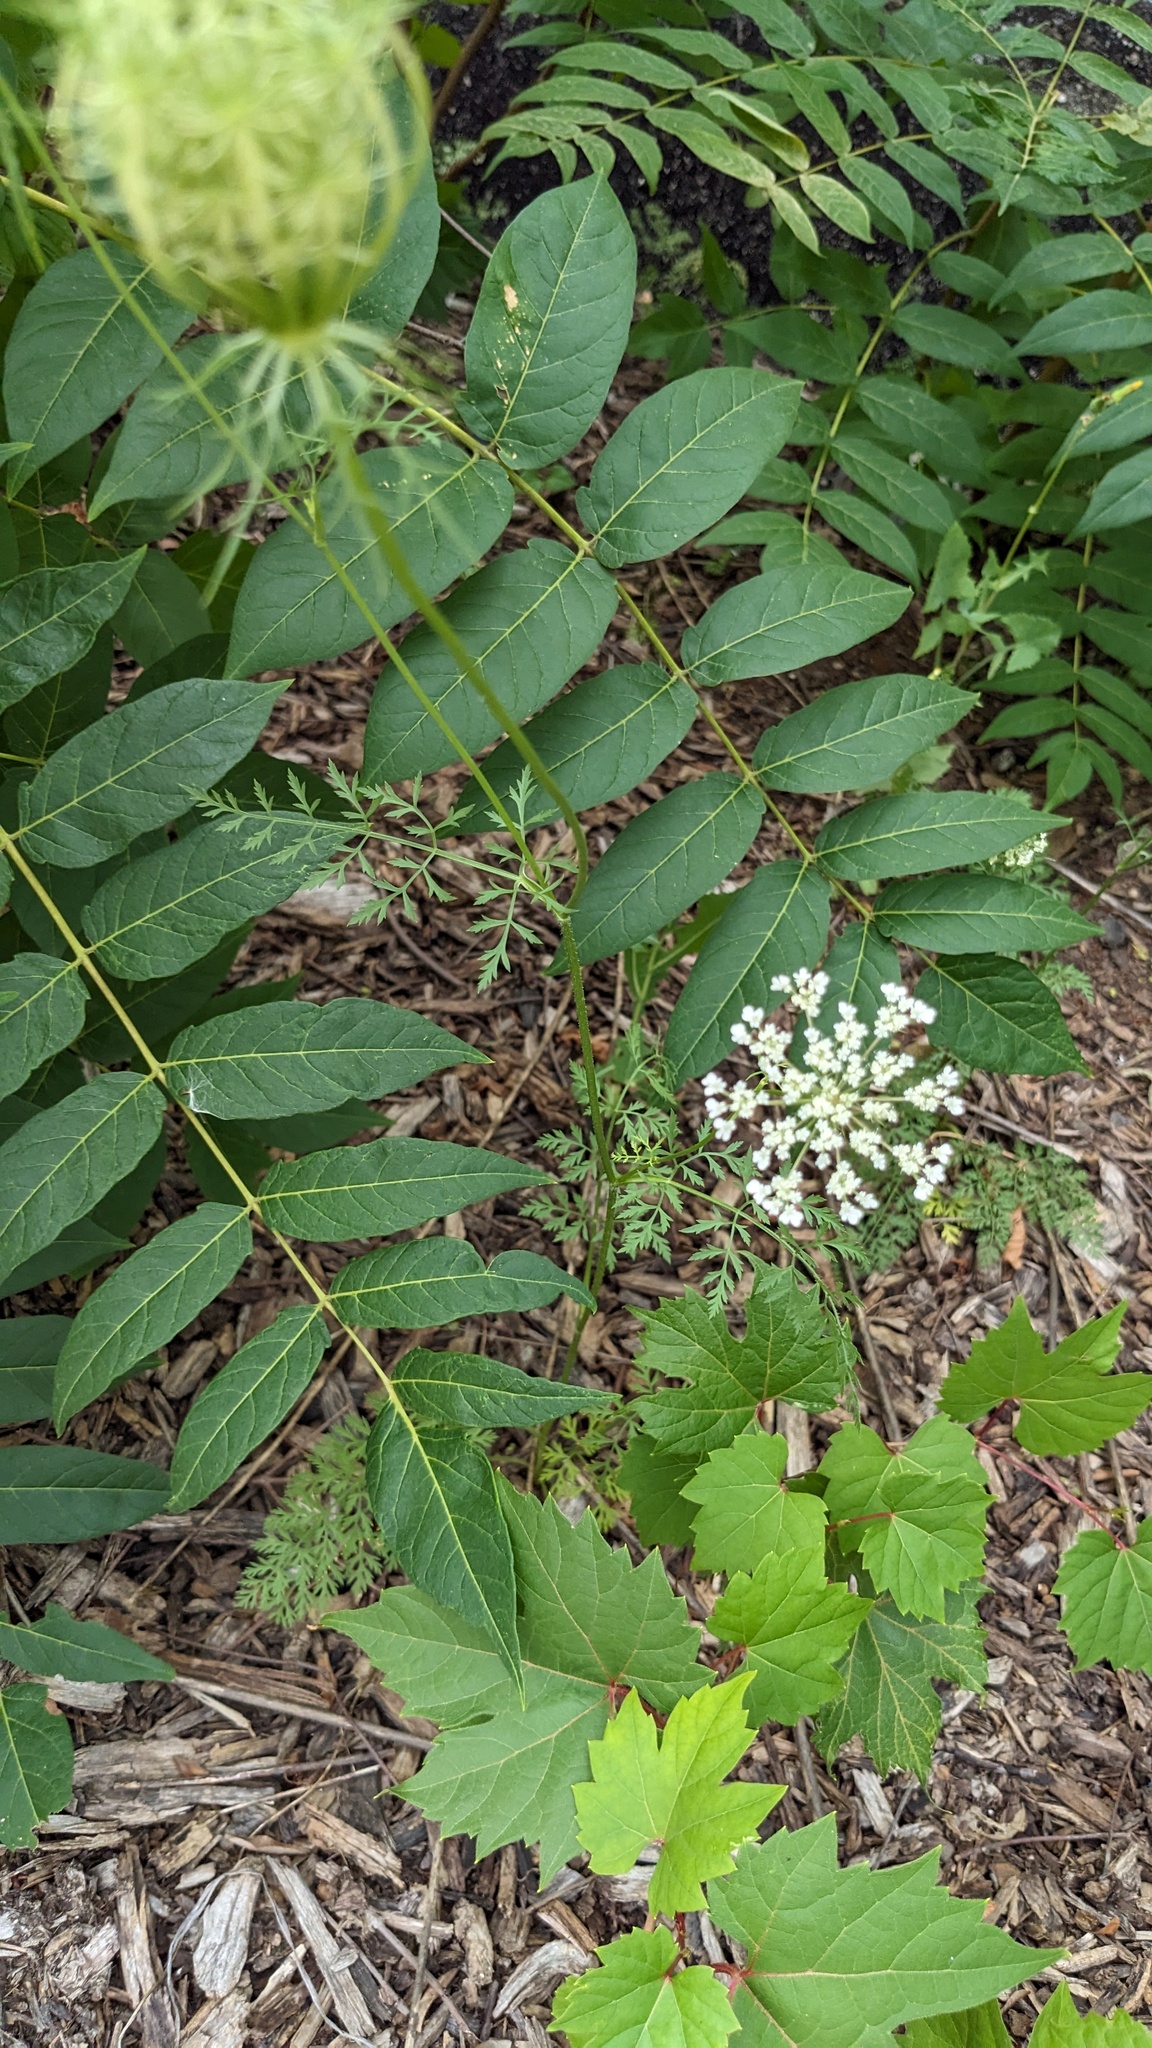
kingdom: Plantae
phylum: Tracheophyta
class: Magnoliopsida
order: Sapindales
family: Simaroubaceae
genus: Ailanthus
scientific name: Ailanthus altissima
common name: Tree-of-heaven
